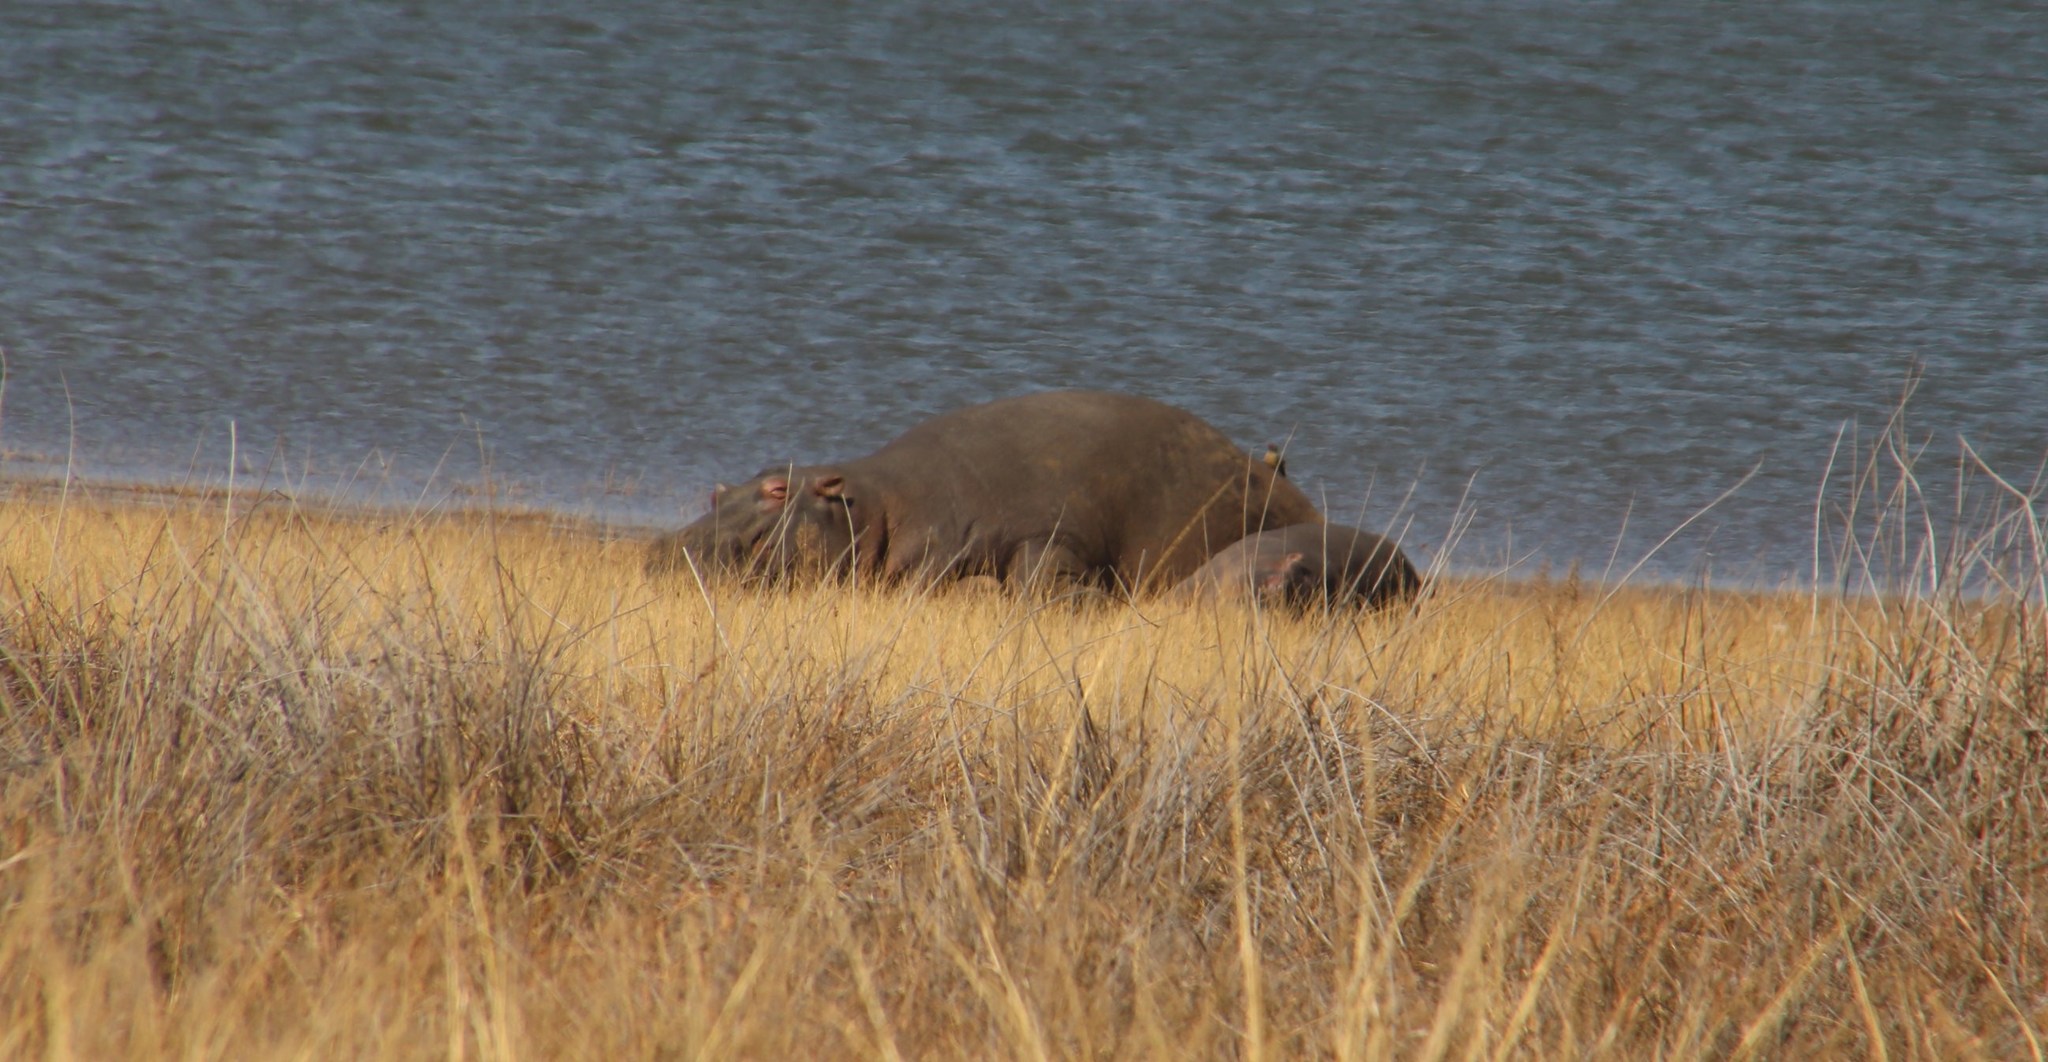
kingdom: Animalia
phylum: Chordata
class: Mammalia
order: Artiodactyla
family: Hippopotamidae
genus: Hippopotamus
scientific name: Hippopotamus amphibius
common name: Common hippopotamus
